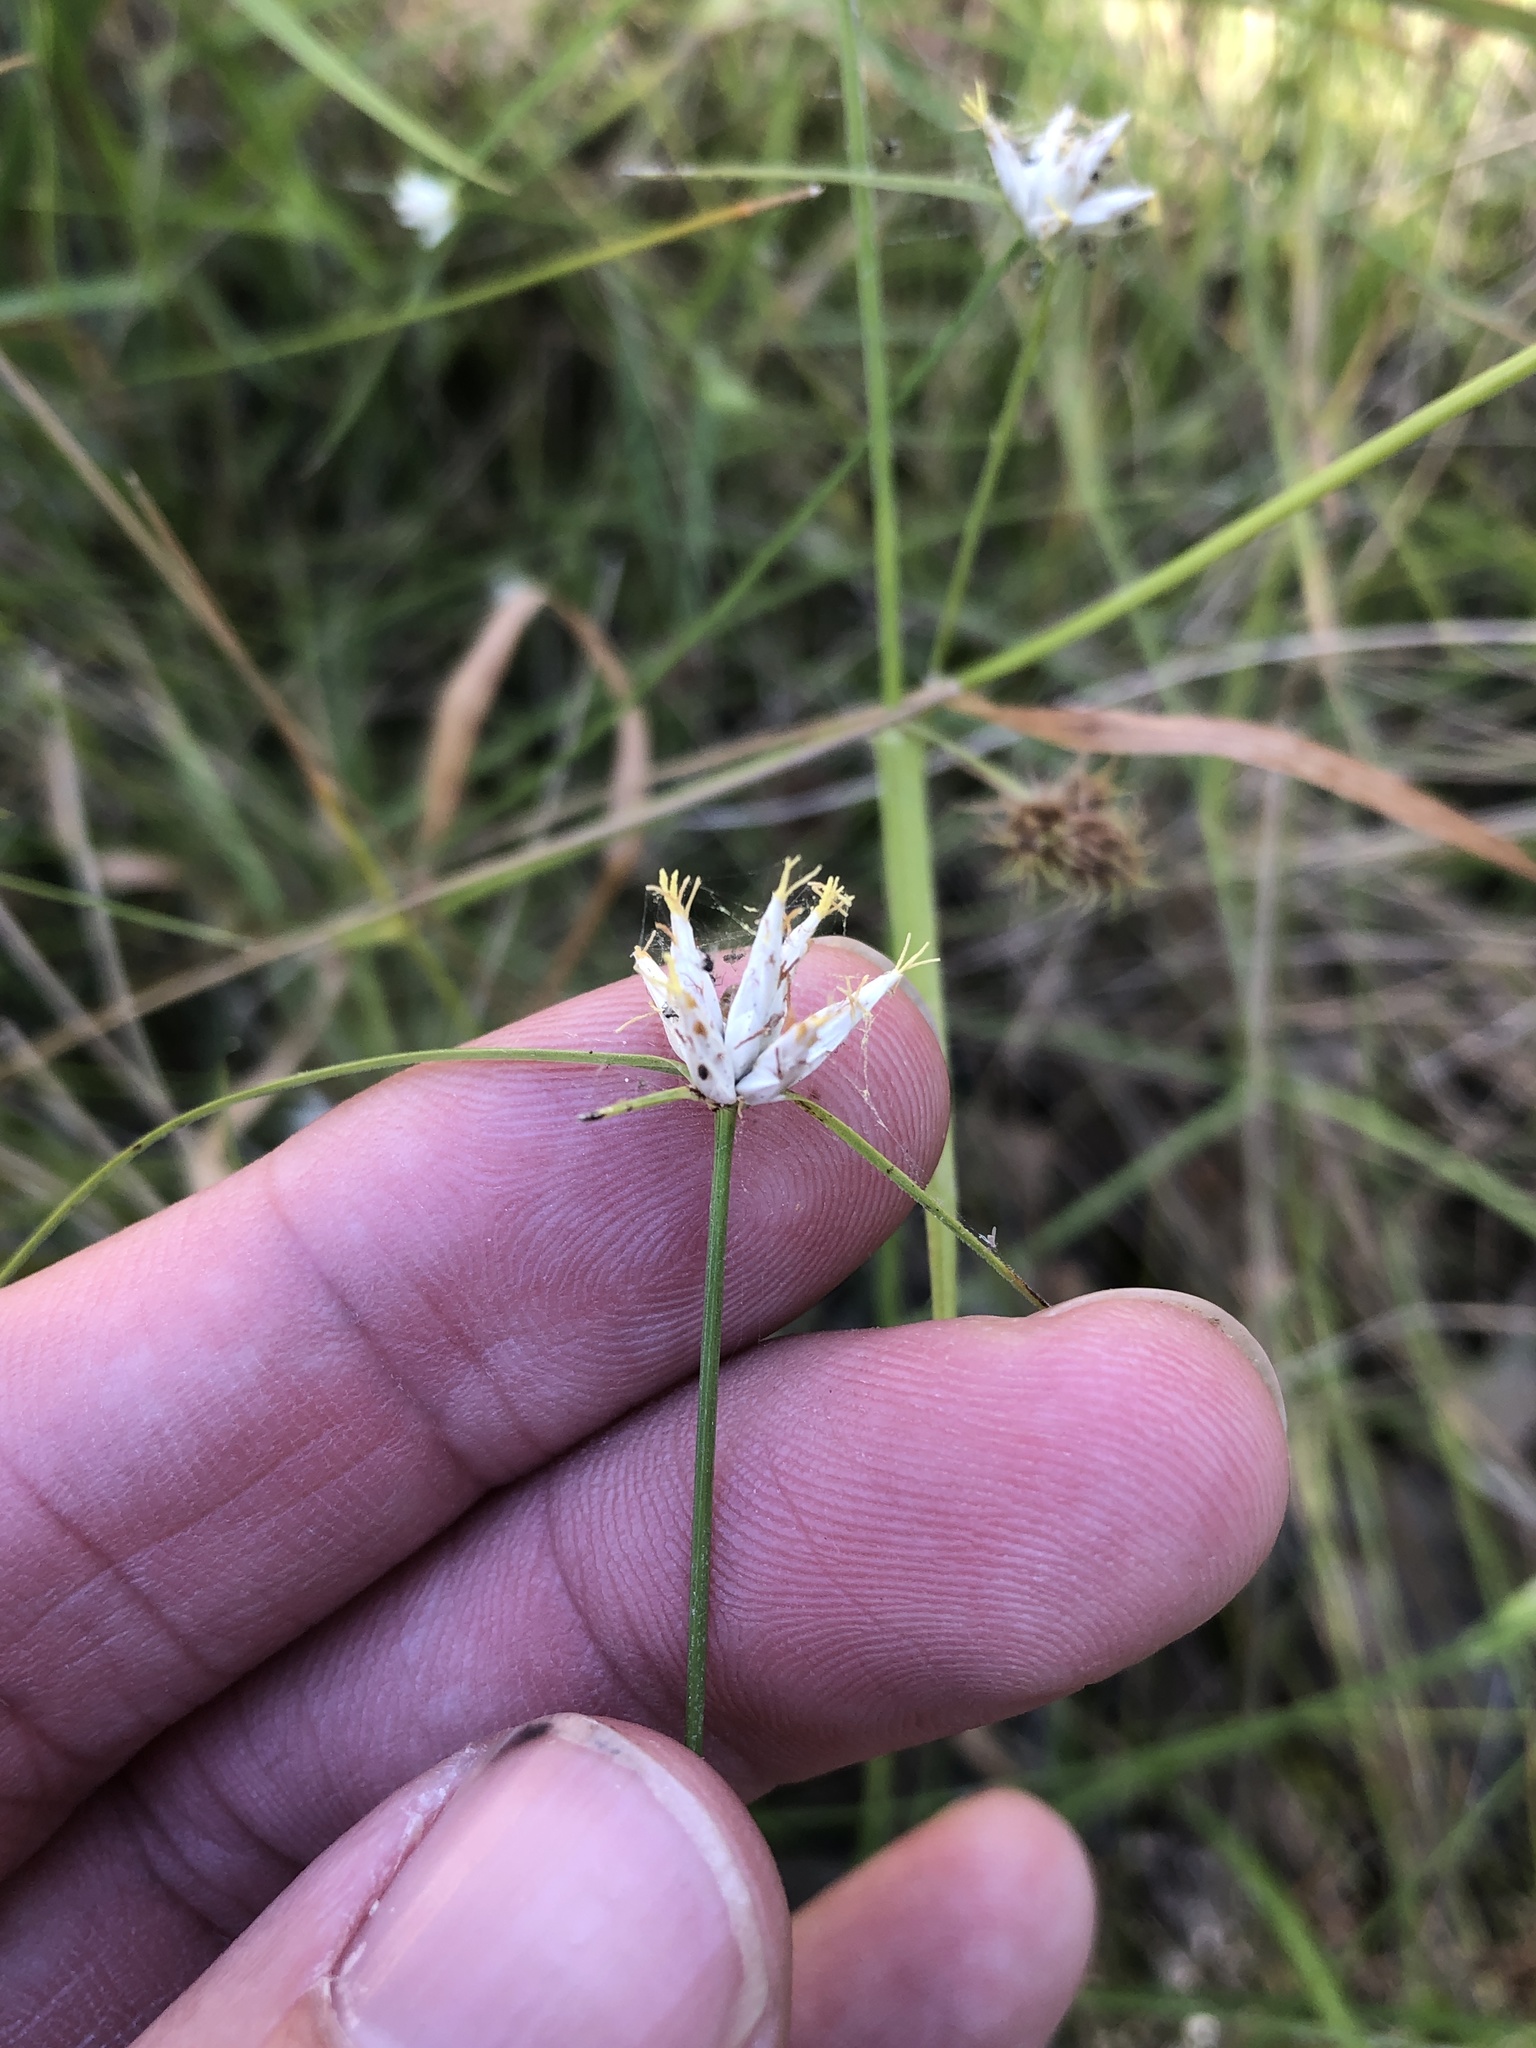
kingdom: Plantae
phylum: Tracheophyta
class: Liliopsida
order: Poales
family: Cyperaceae
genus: Rhynchospora
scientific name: Rhynchospora nivea
